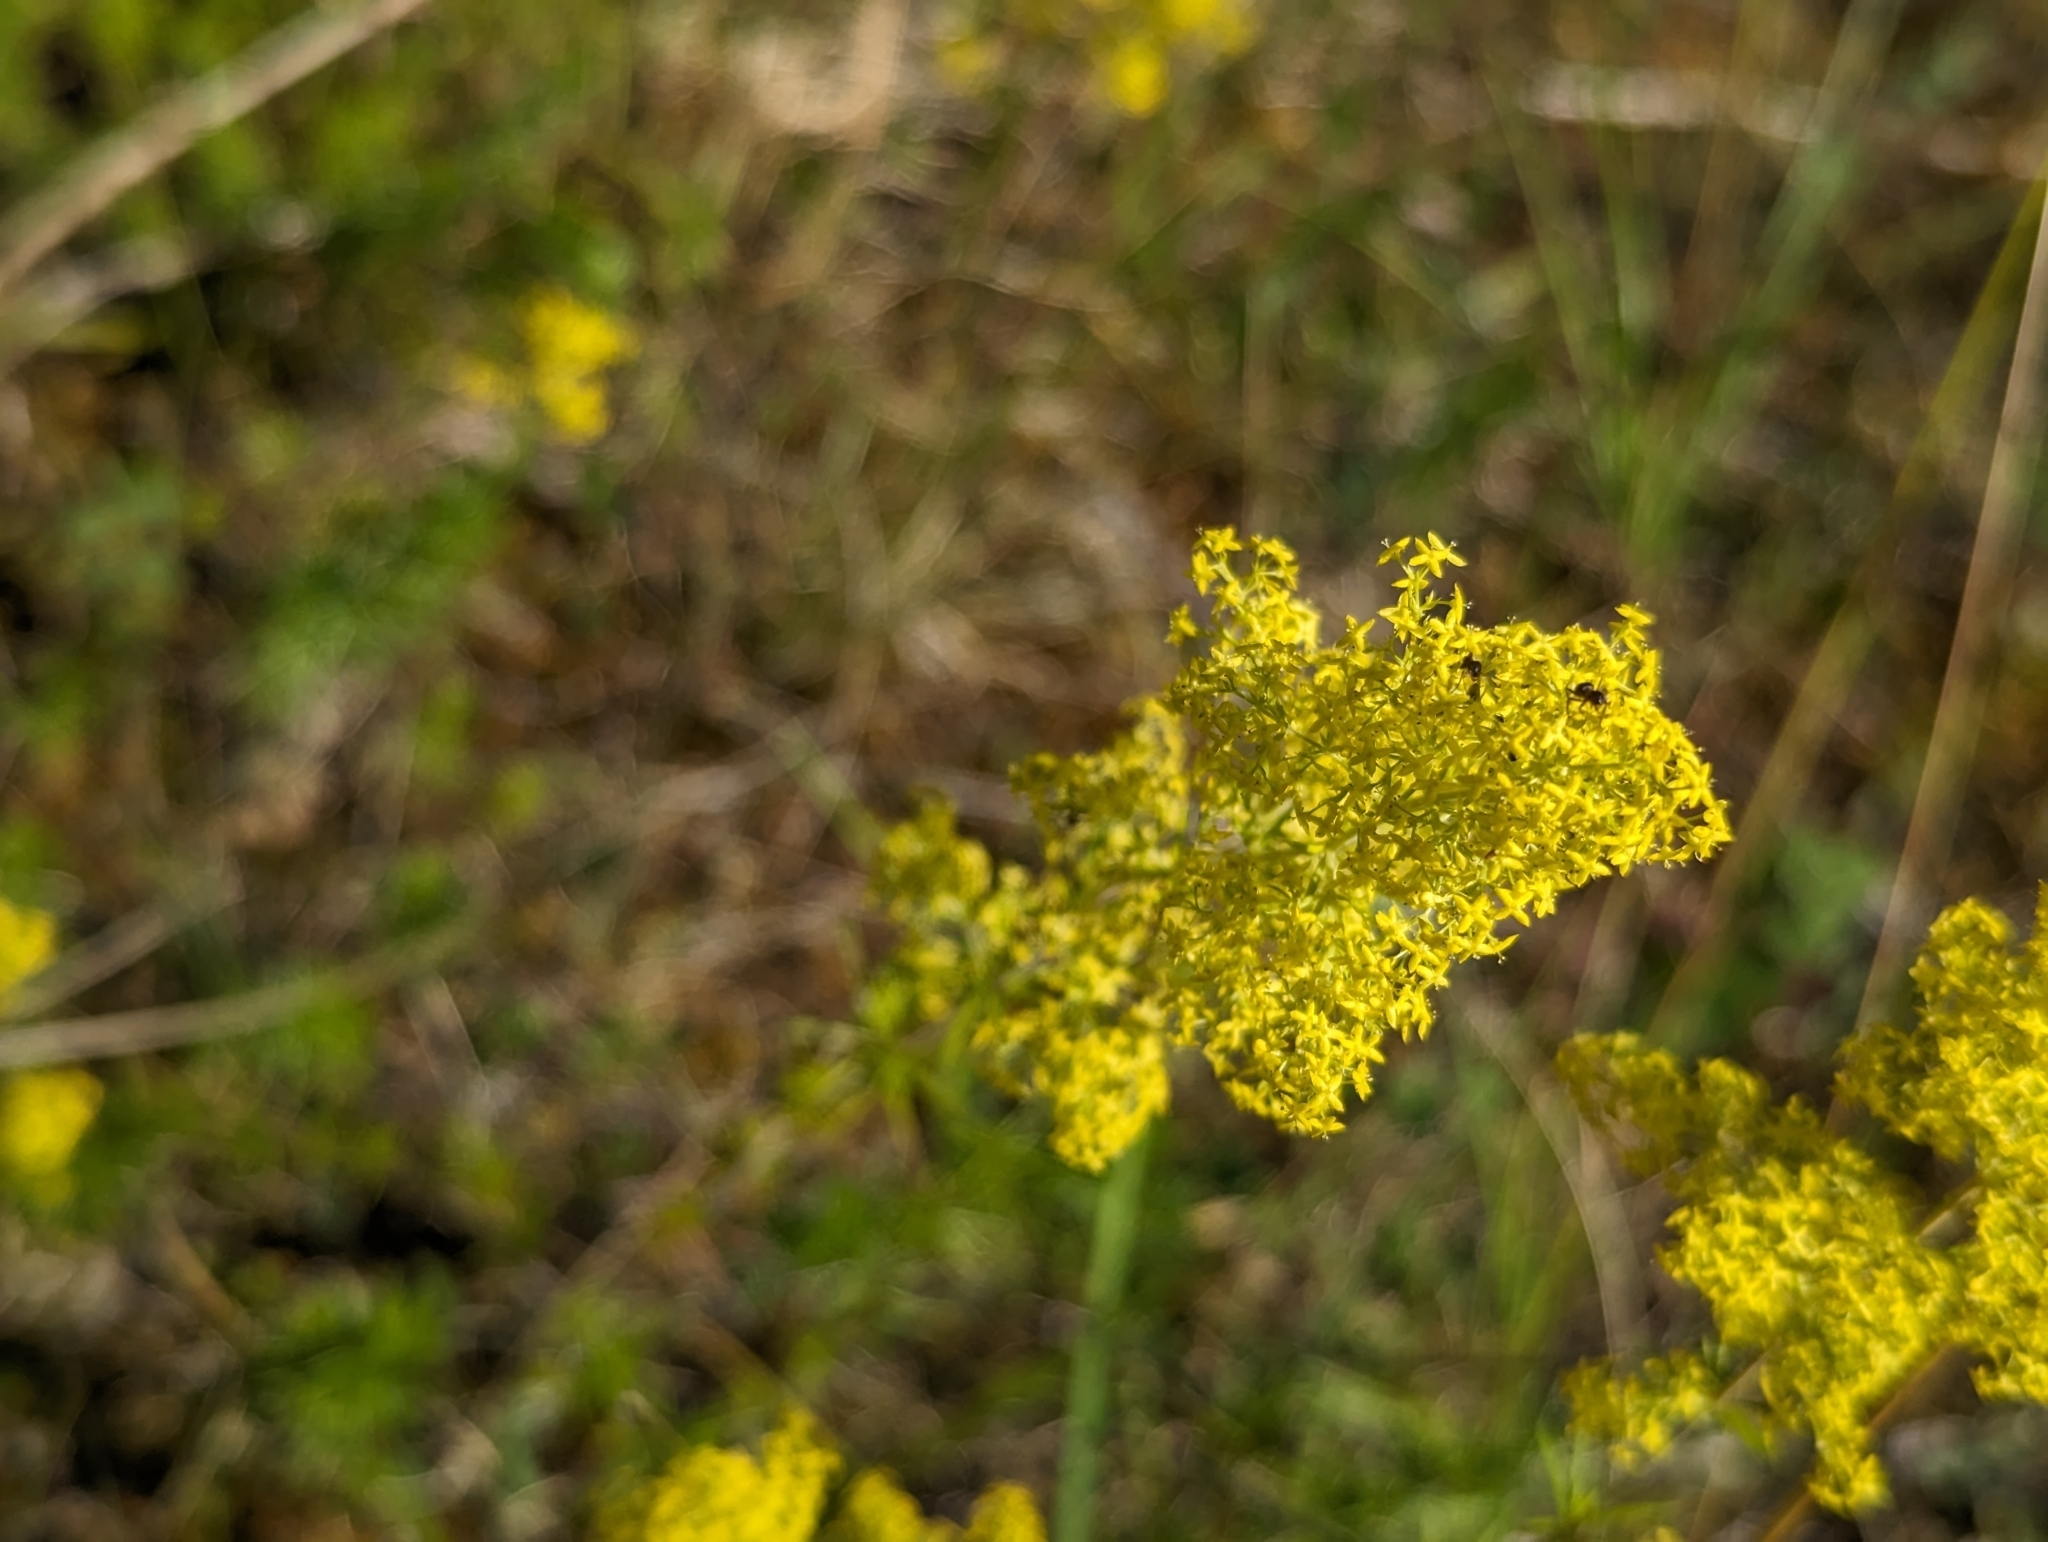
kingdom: Plantae
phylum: Tracheophyta
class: Magnoliopsida
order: Gentianales
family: Rubiaceae
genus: Galium
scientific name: Galium verum
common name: Lady's bedstraw
